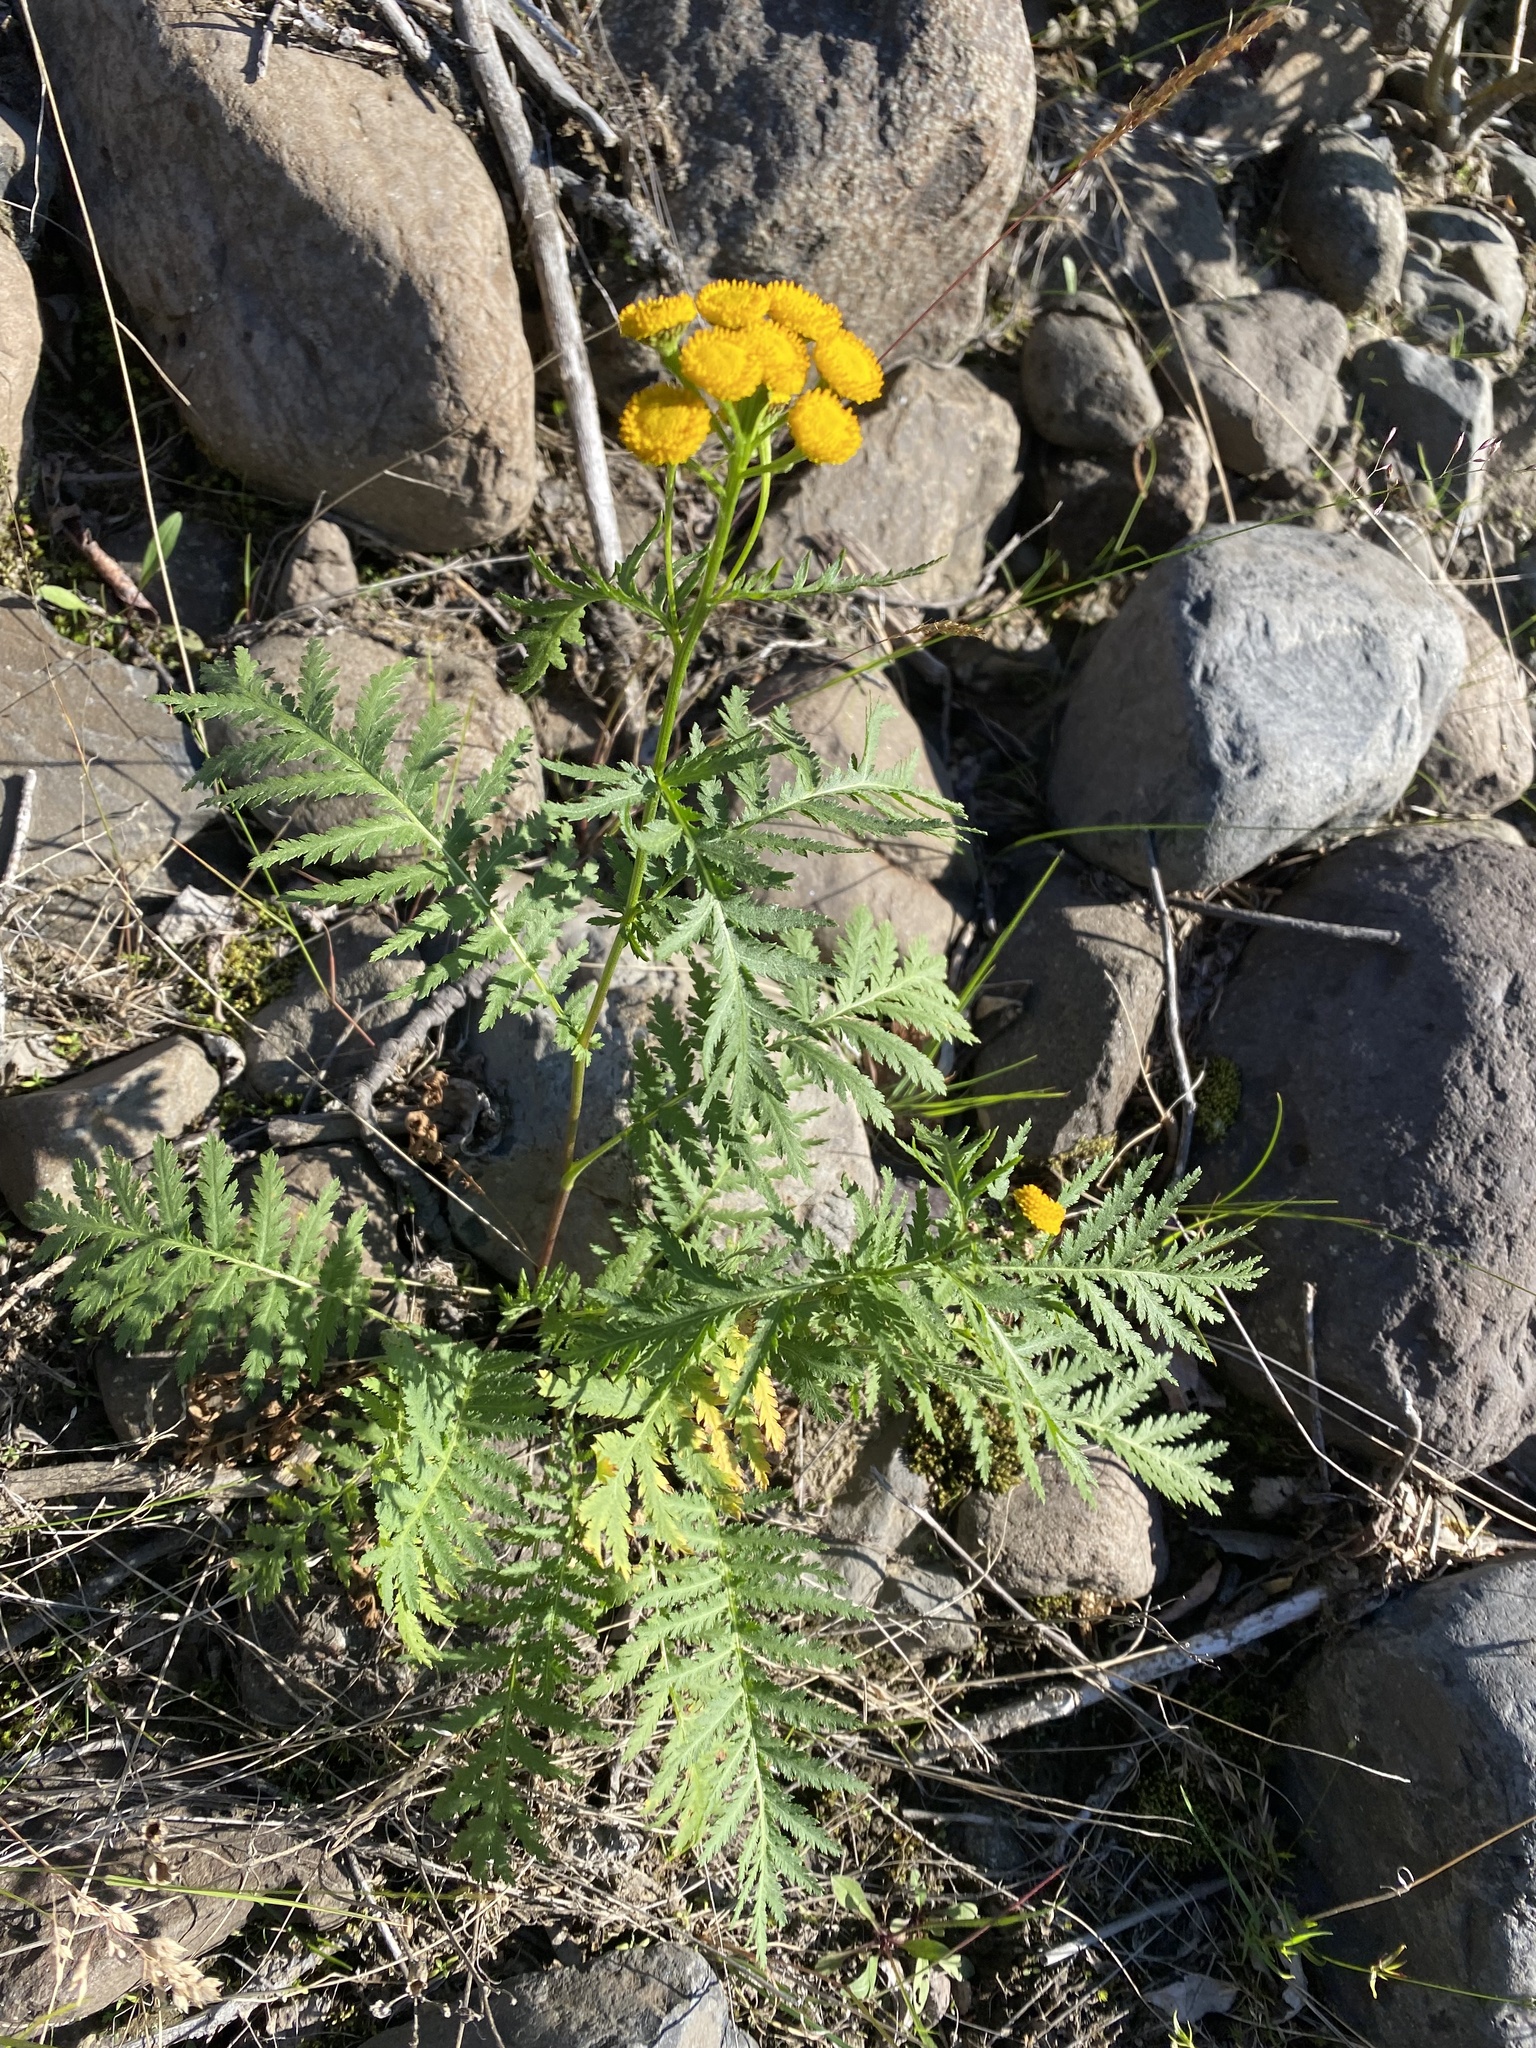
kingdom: Plantae
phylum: Tracheophyta
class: Magnoliopsida
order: Asterales
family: Asteraceae
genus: Tanacetum
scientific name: Tanacetum vulgare
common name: Common tansy
